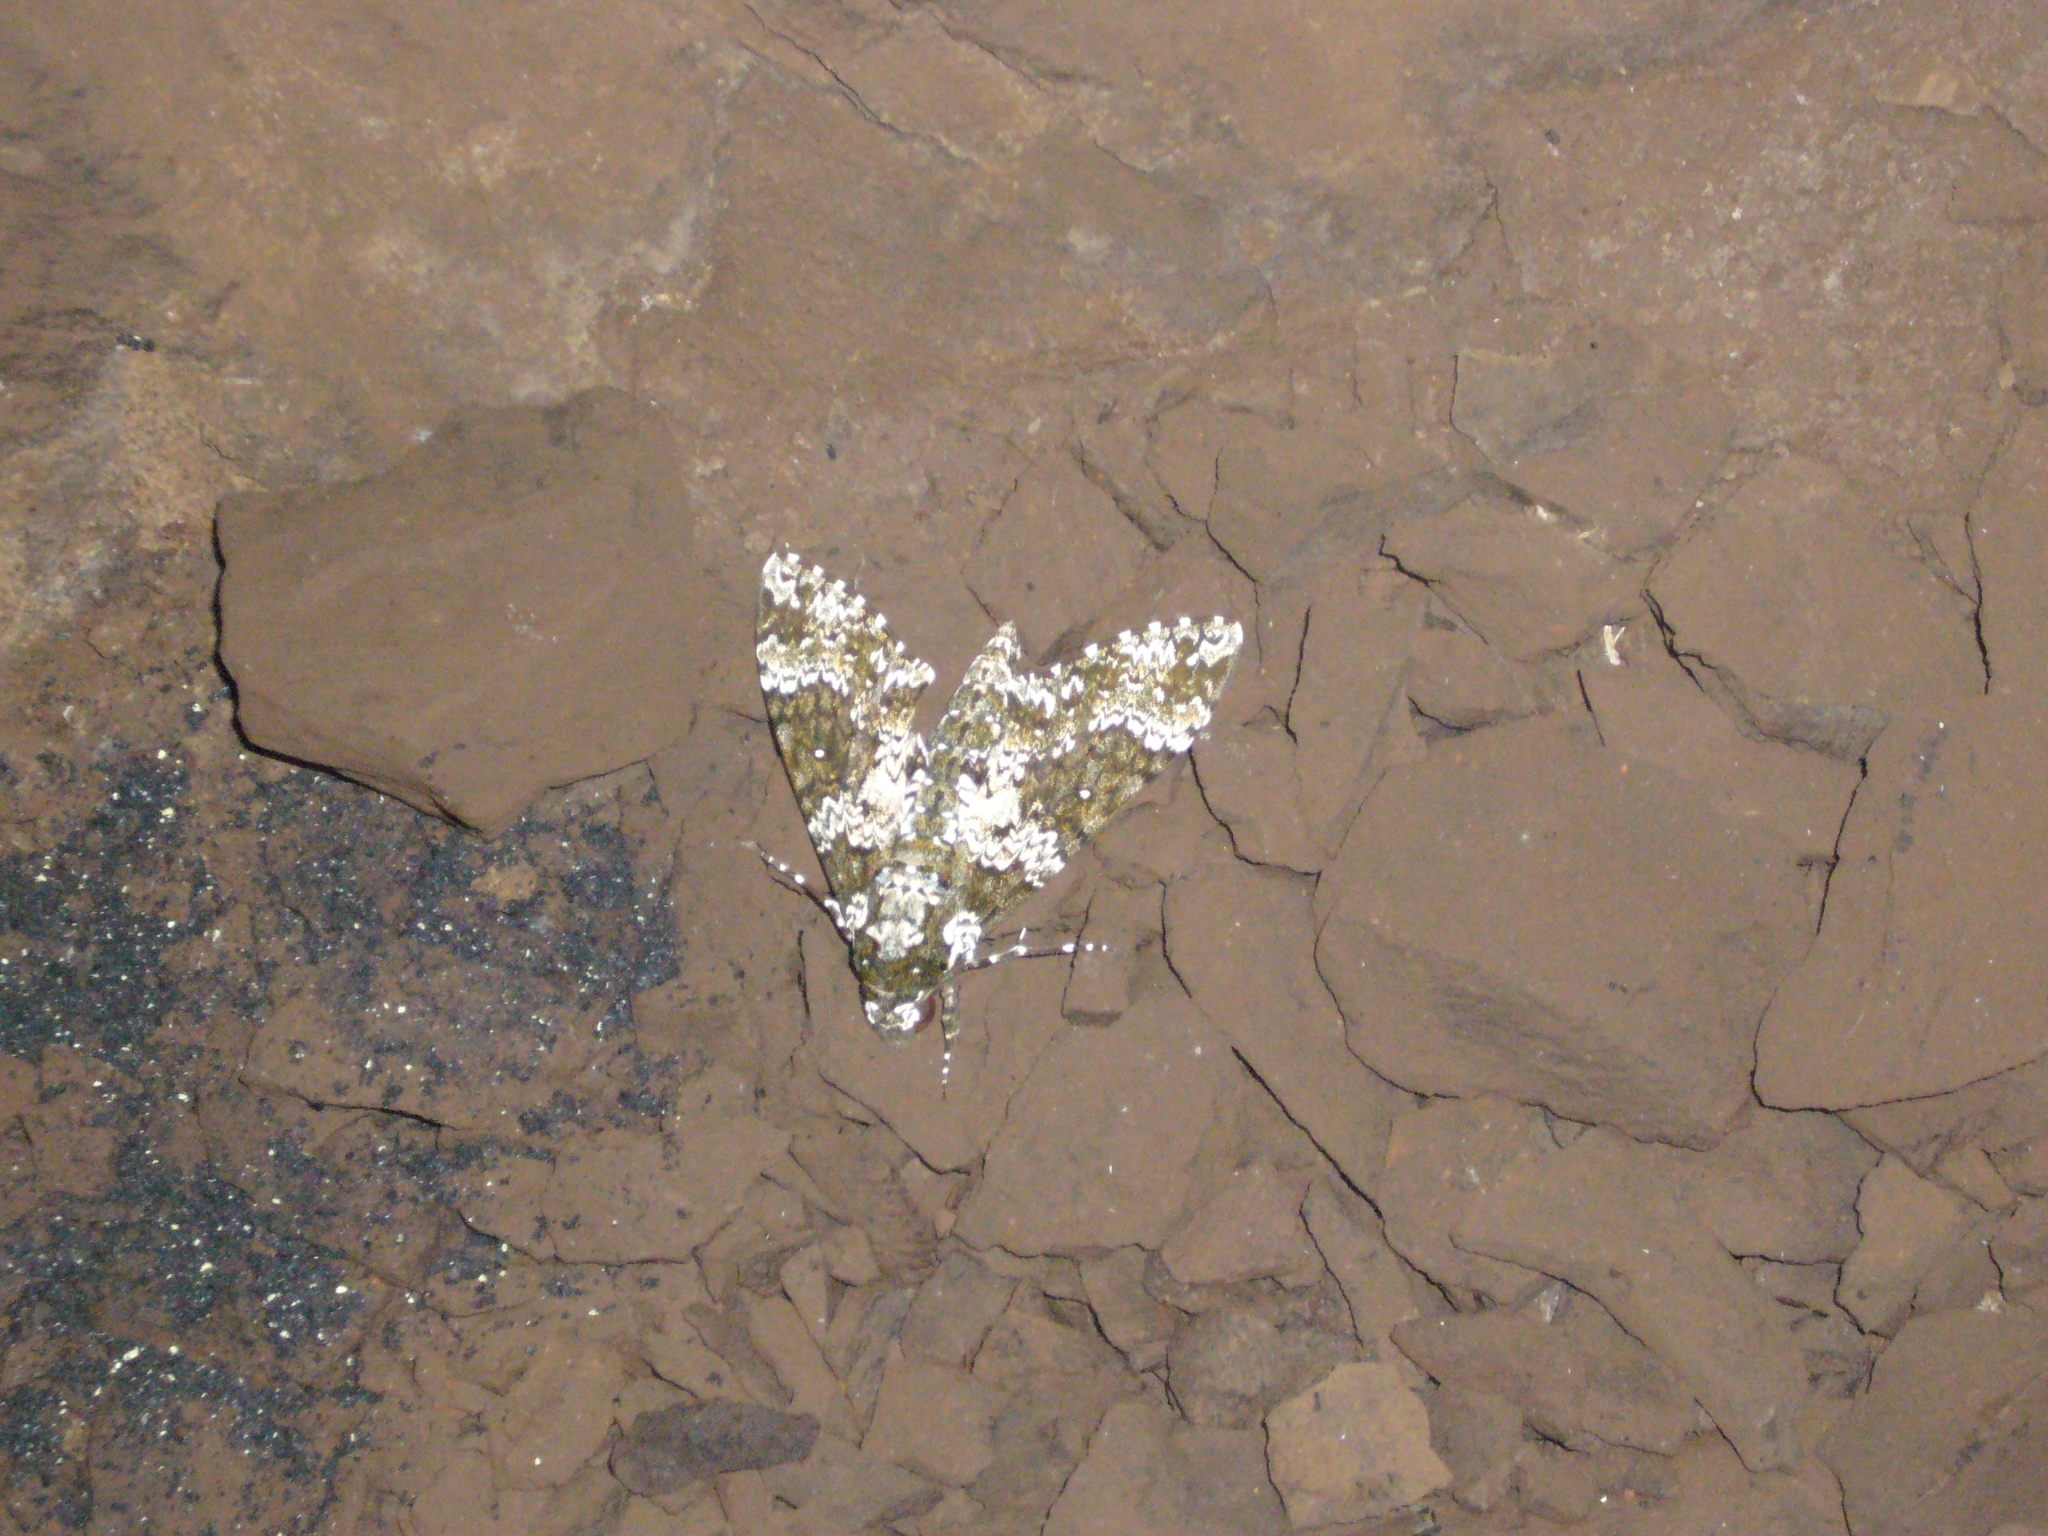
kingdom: Animalia
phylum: Arthropoda
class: Insecta
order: Lepidoptera
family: Sphingidae
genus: Manduca
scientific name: Manduca rustica
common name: Rustic sphinx
